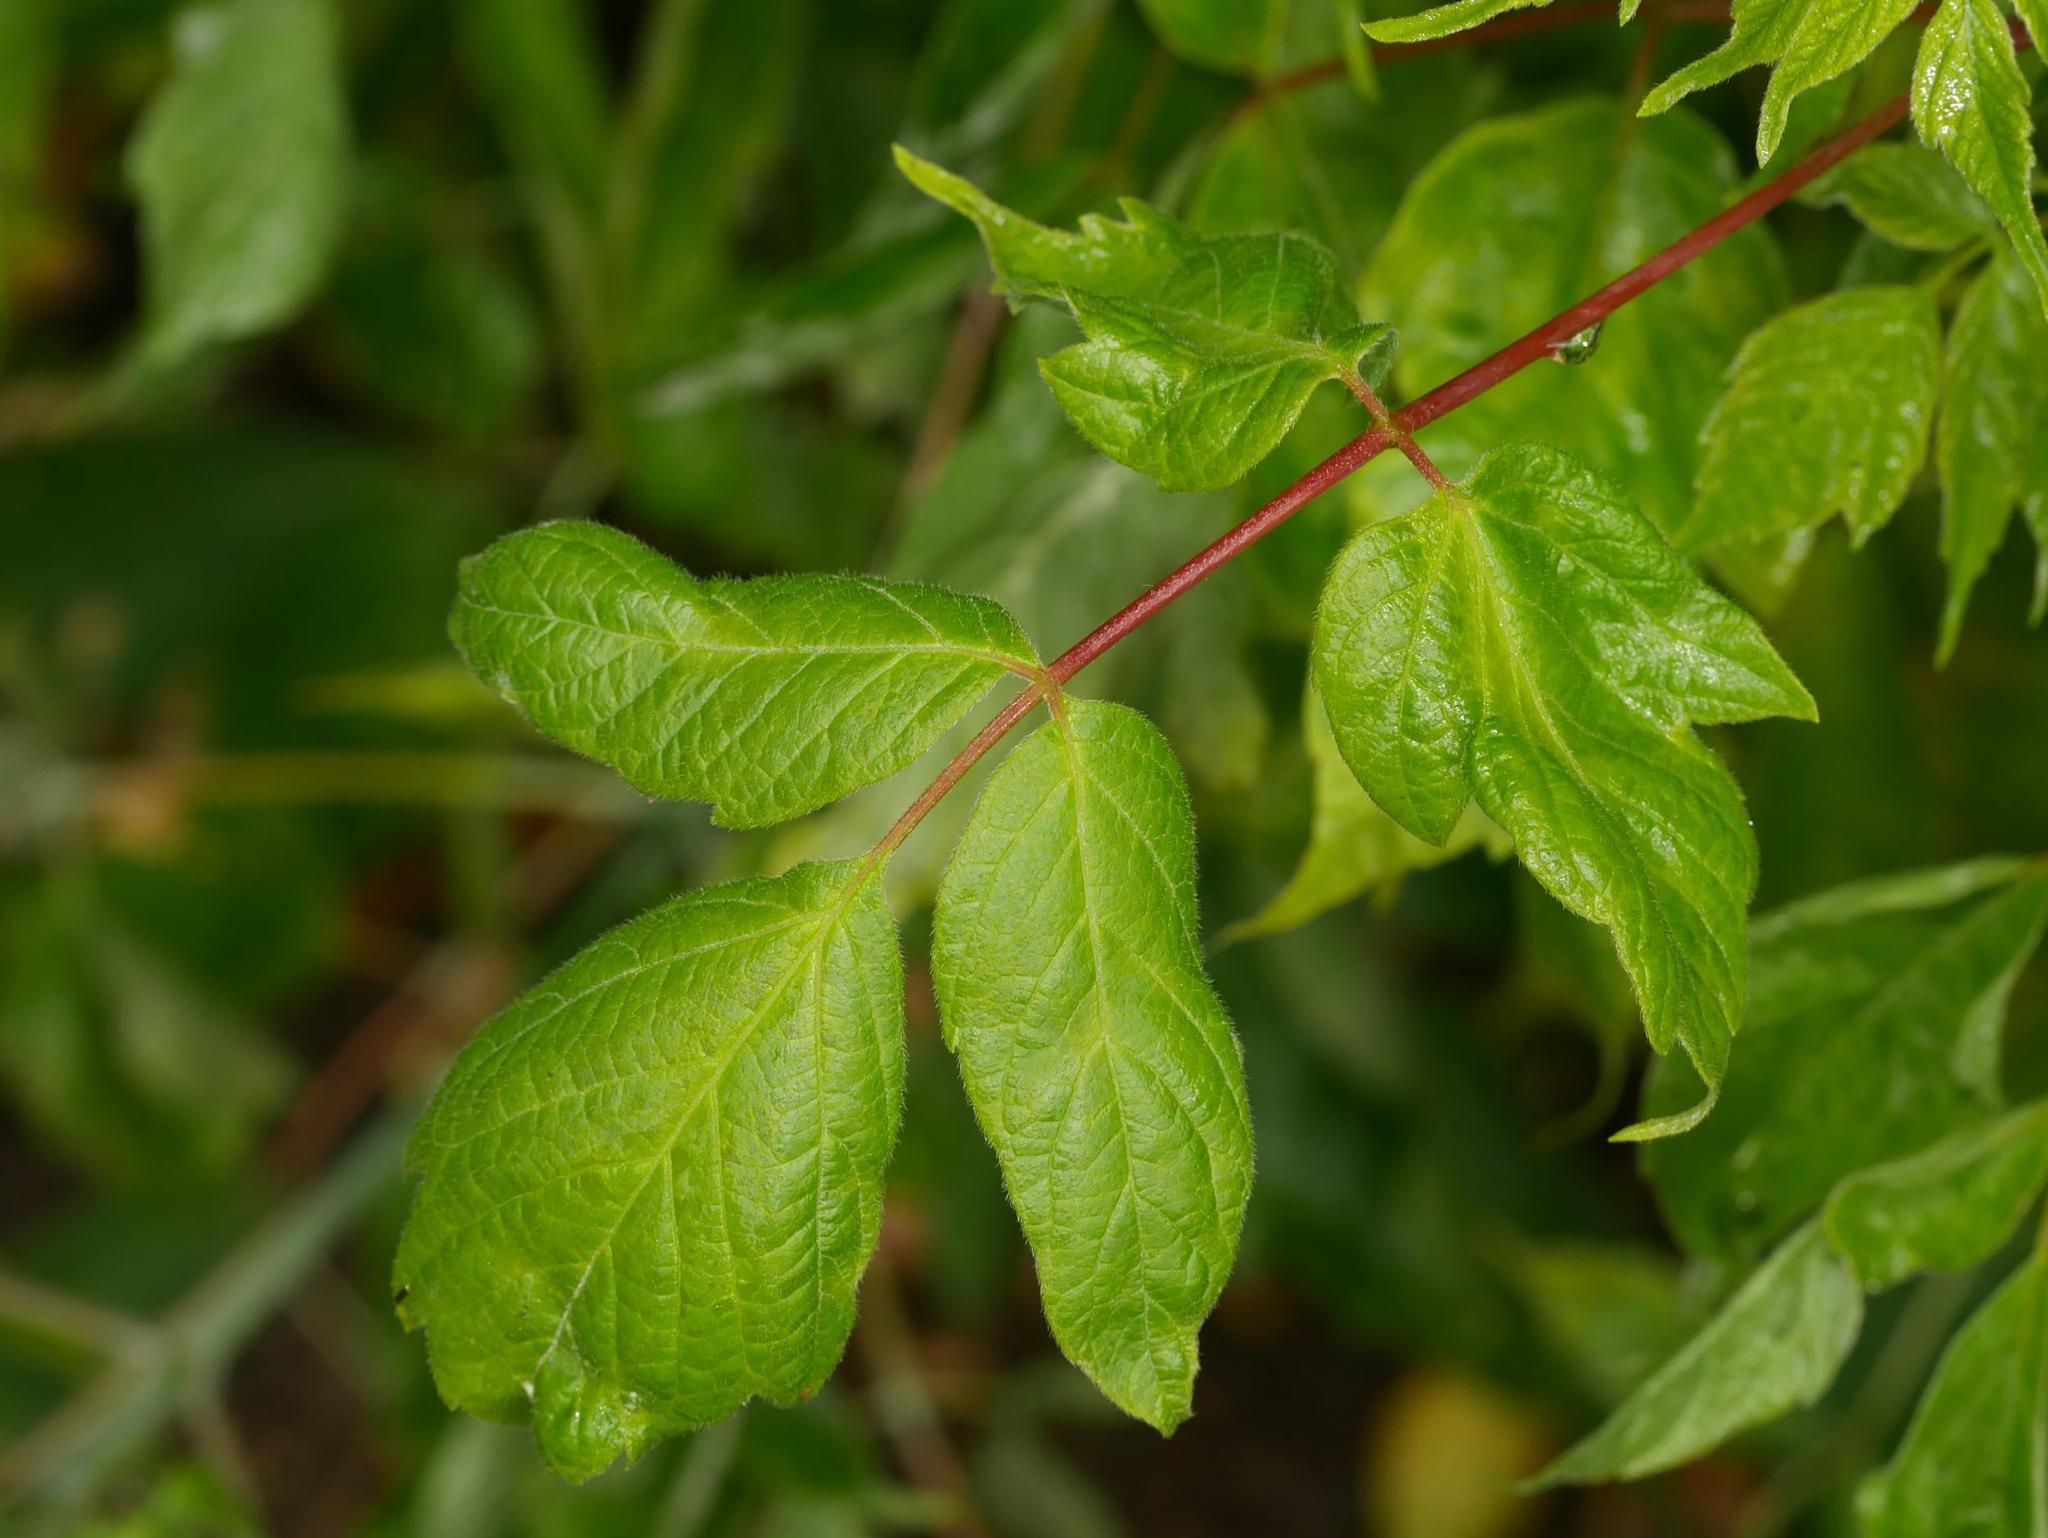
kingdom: Plantae
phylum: Tracheophyta
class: Magnoliopsida
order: Sapindales
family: Sapindaceae
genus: Acer
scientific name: Acer negundo
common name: Ashleaf maple
